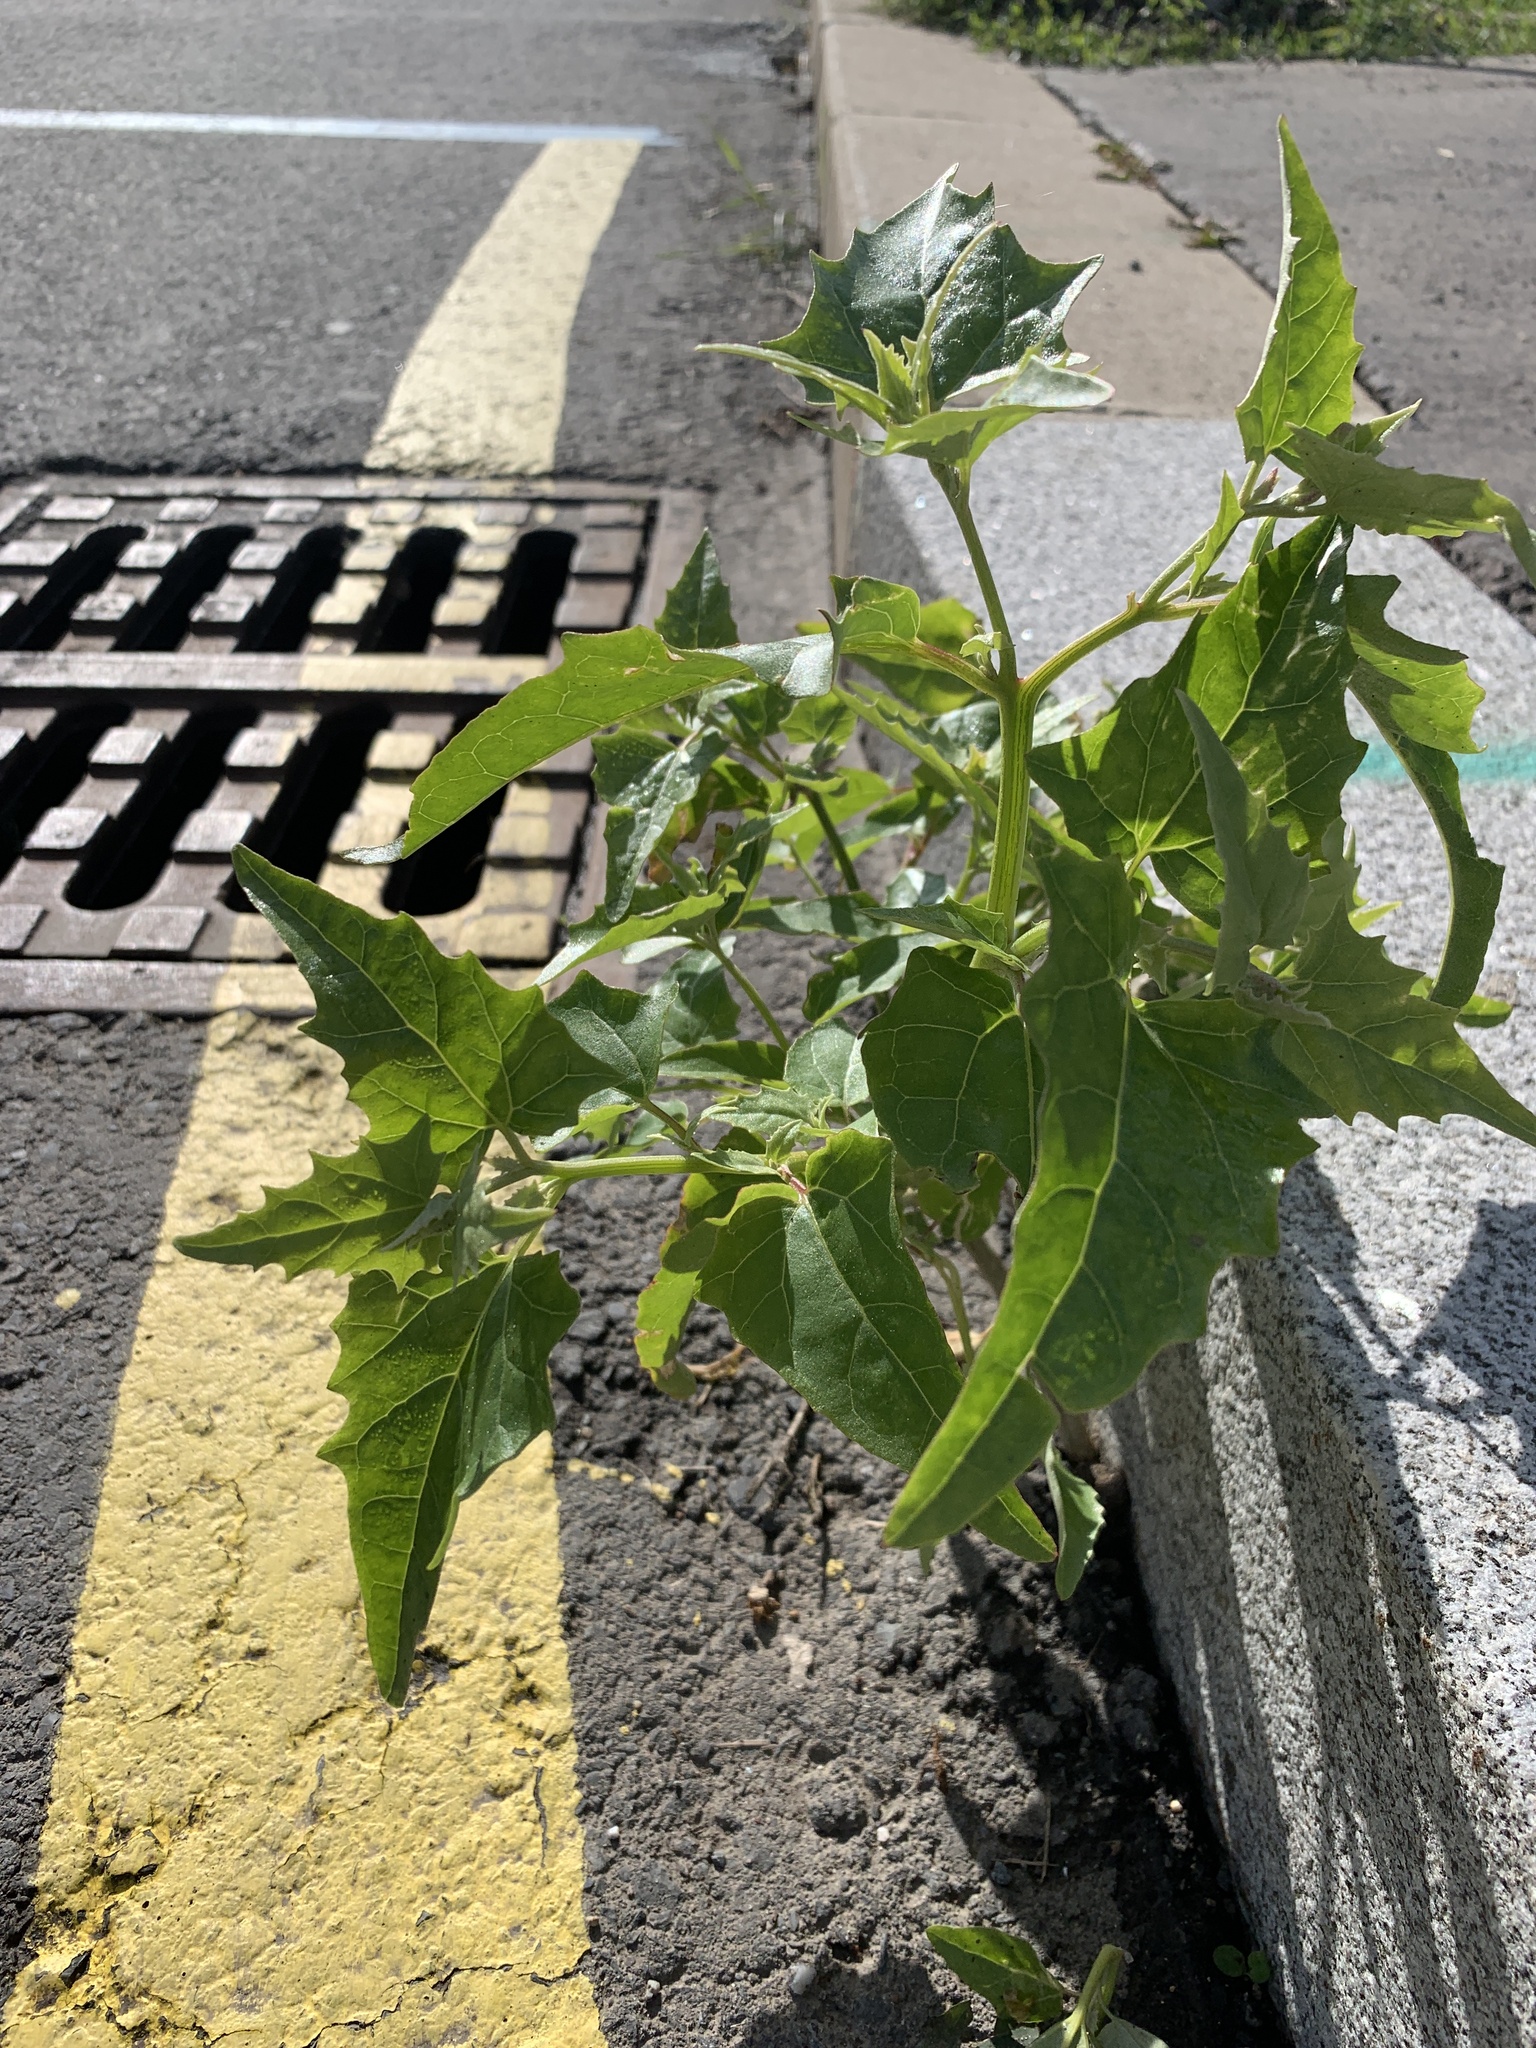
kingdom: Plantae
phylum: Tracheophyta
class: Magnoliopsida
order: Caryophyllales
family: Amaranthaceae
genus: Atriplex
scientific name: Atriplex sagittata
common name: Purple orache
